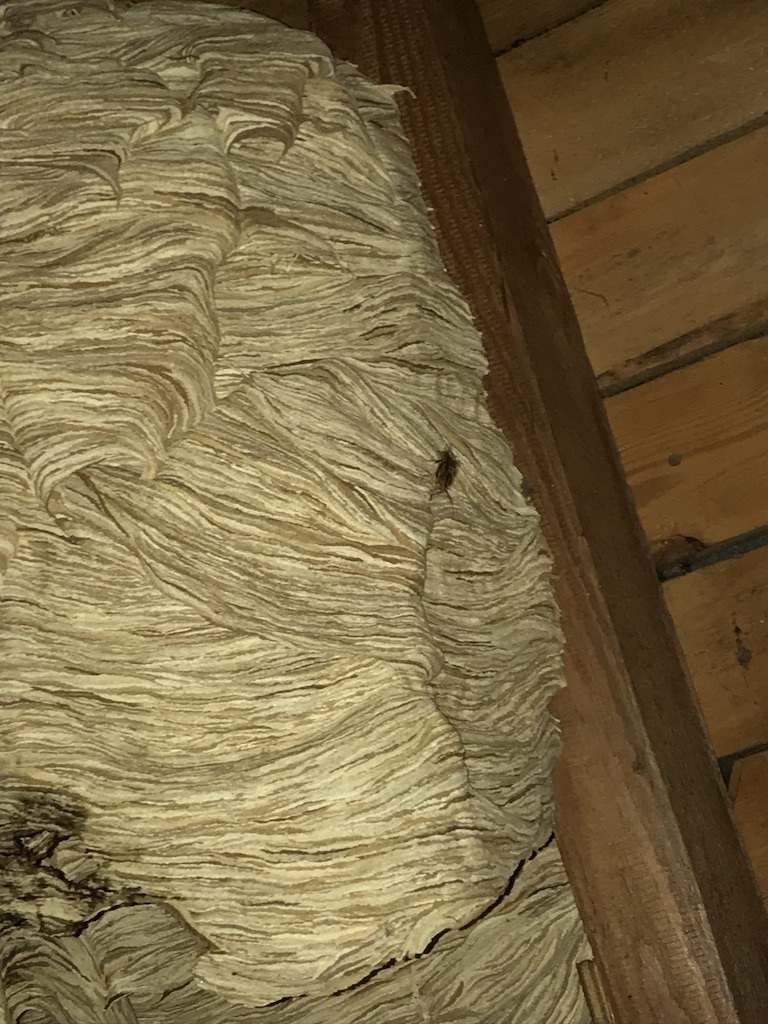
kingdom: Animalia
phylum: Arthropoda
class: Insecta
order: Hymenoptera
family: Vespidae
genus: Vespa
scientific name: Vespa crabro
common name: Hornet
